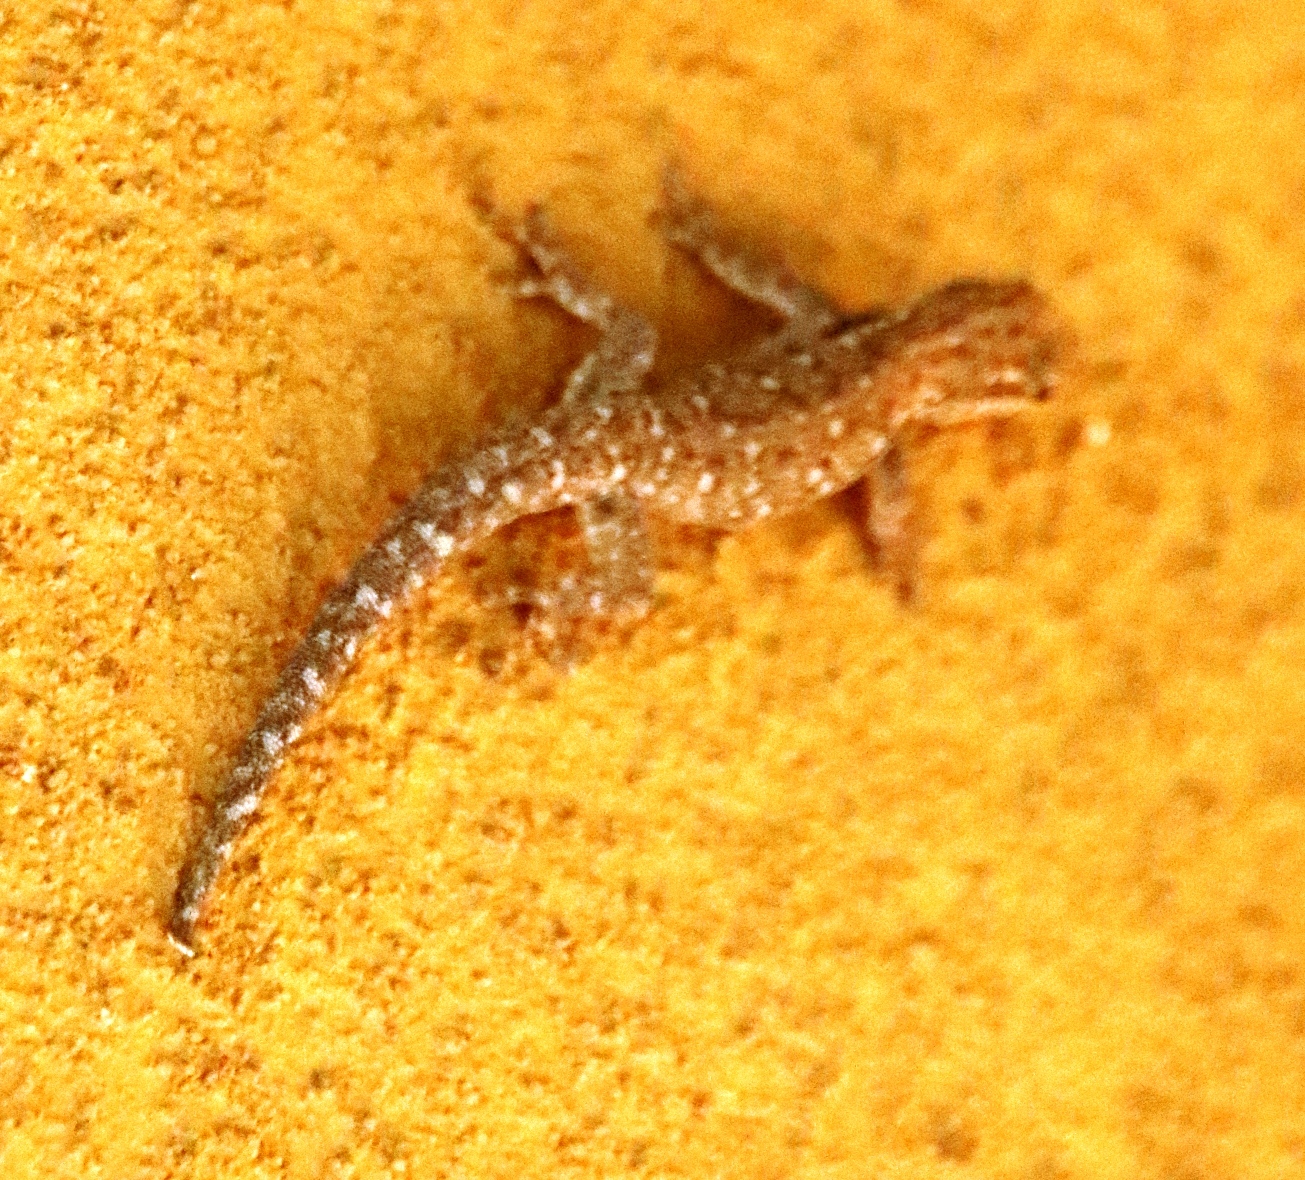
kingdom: Animalia
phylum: Chordata
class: Squamata
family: Gekkonidae
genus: Lygodactylus
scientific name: Lygodactylus chobiensis
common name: Okavango dwarf gecko
